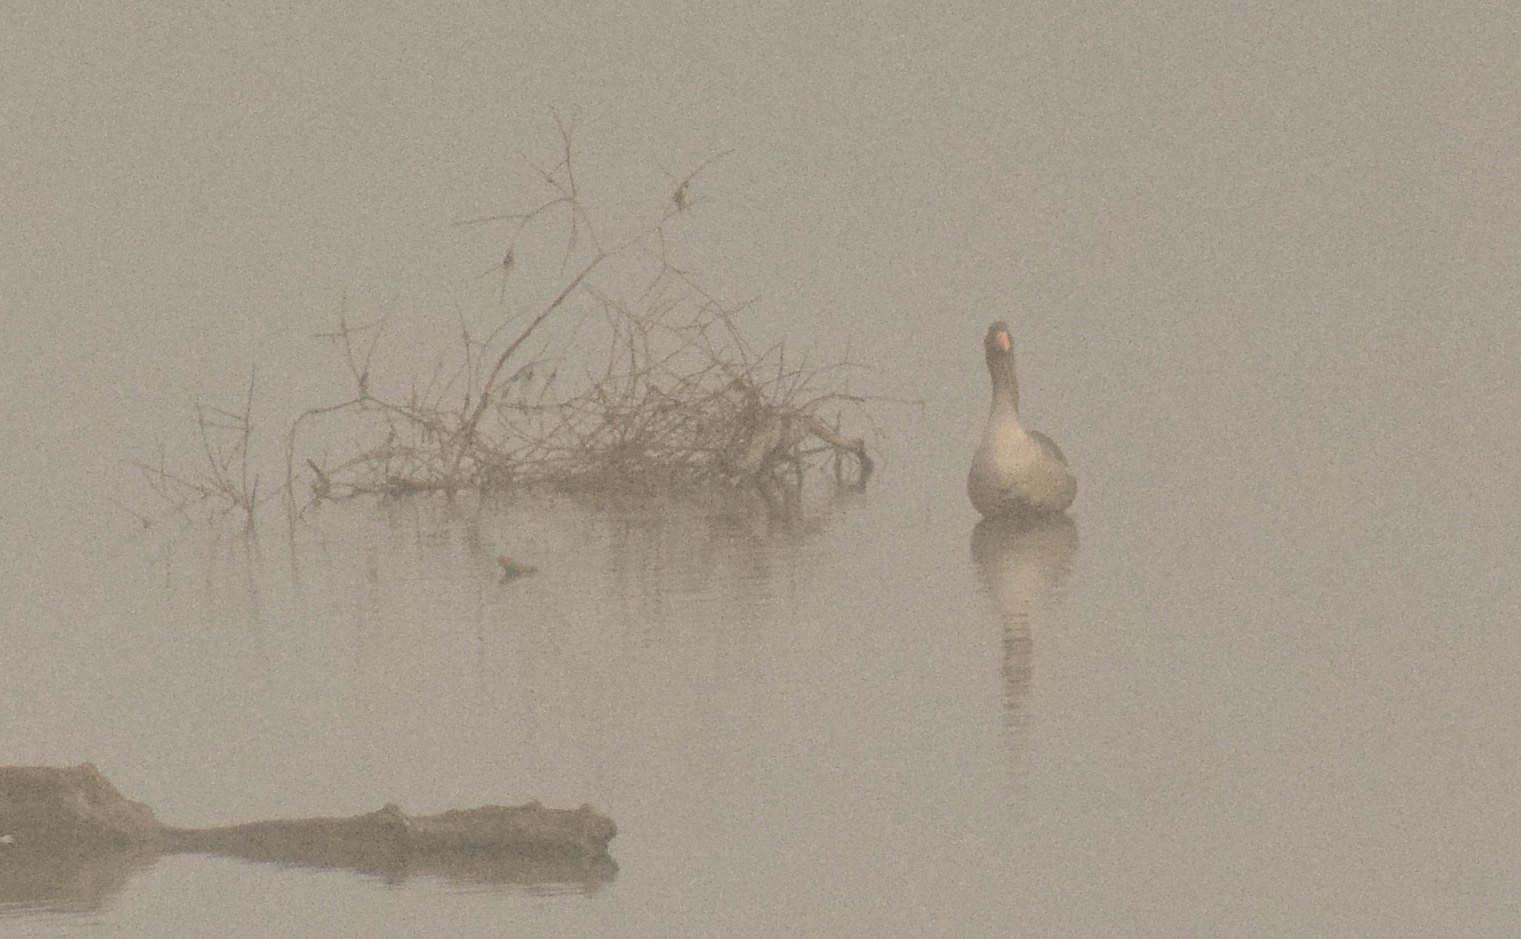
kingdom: Animalia
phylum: Chordata
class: Aves
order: Anseriformes
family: Anatidae
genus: Anser
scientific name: Anser anser
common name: Greylag goose
